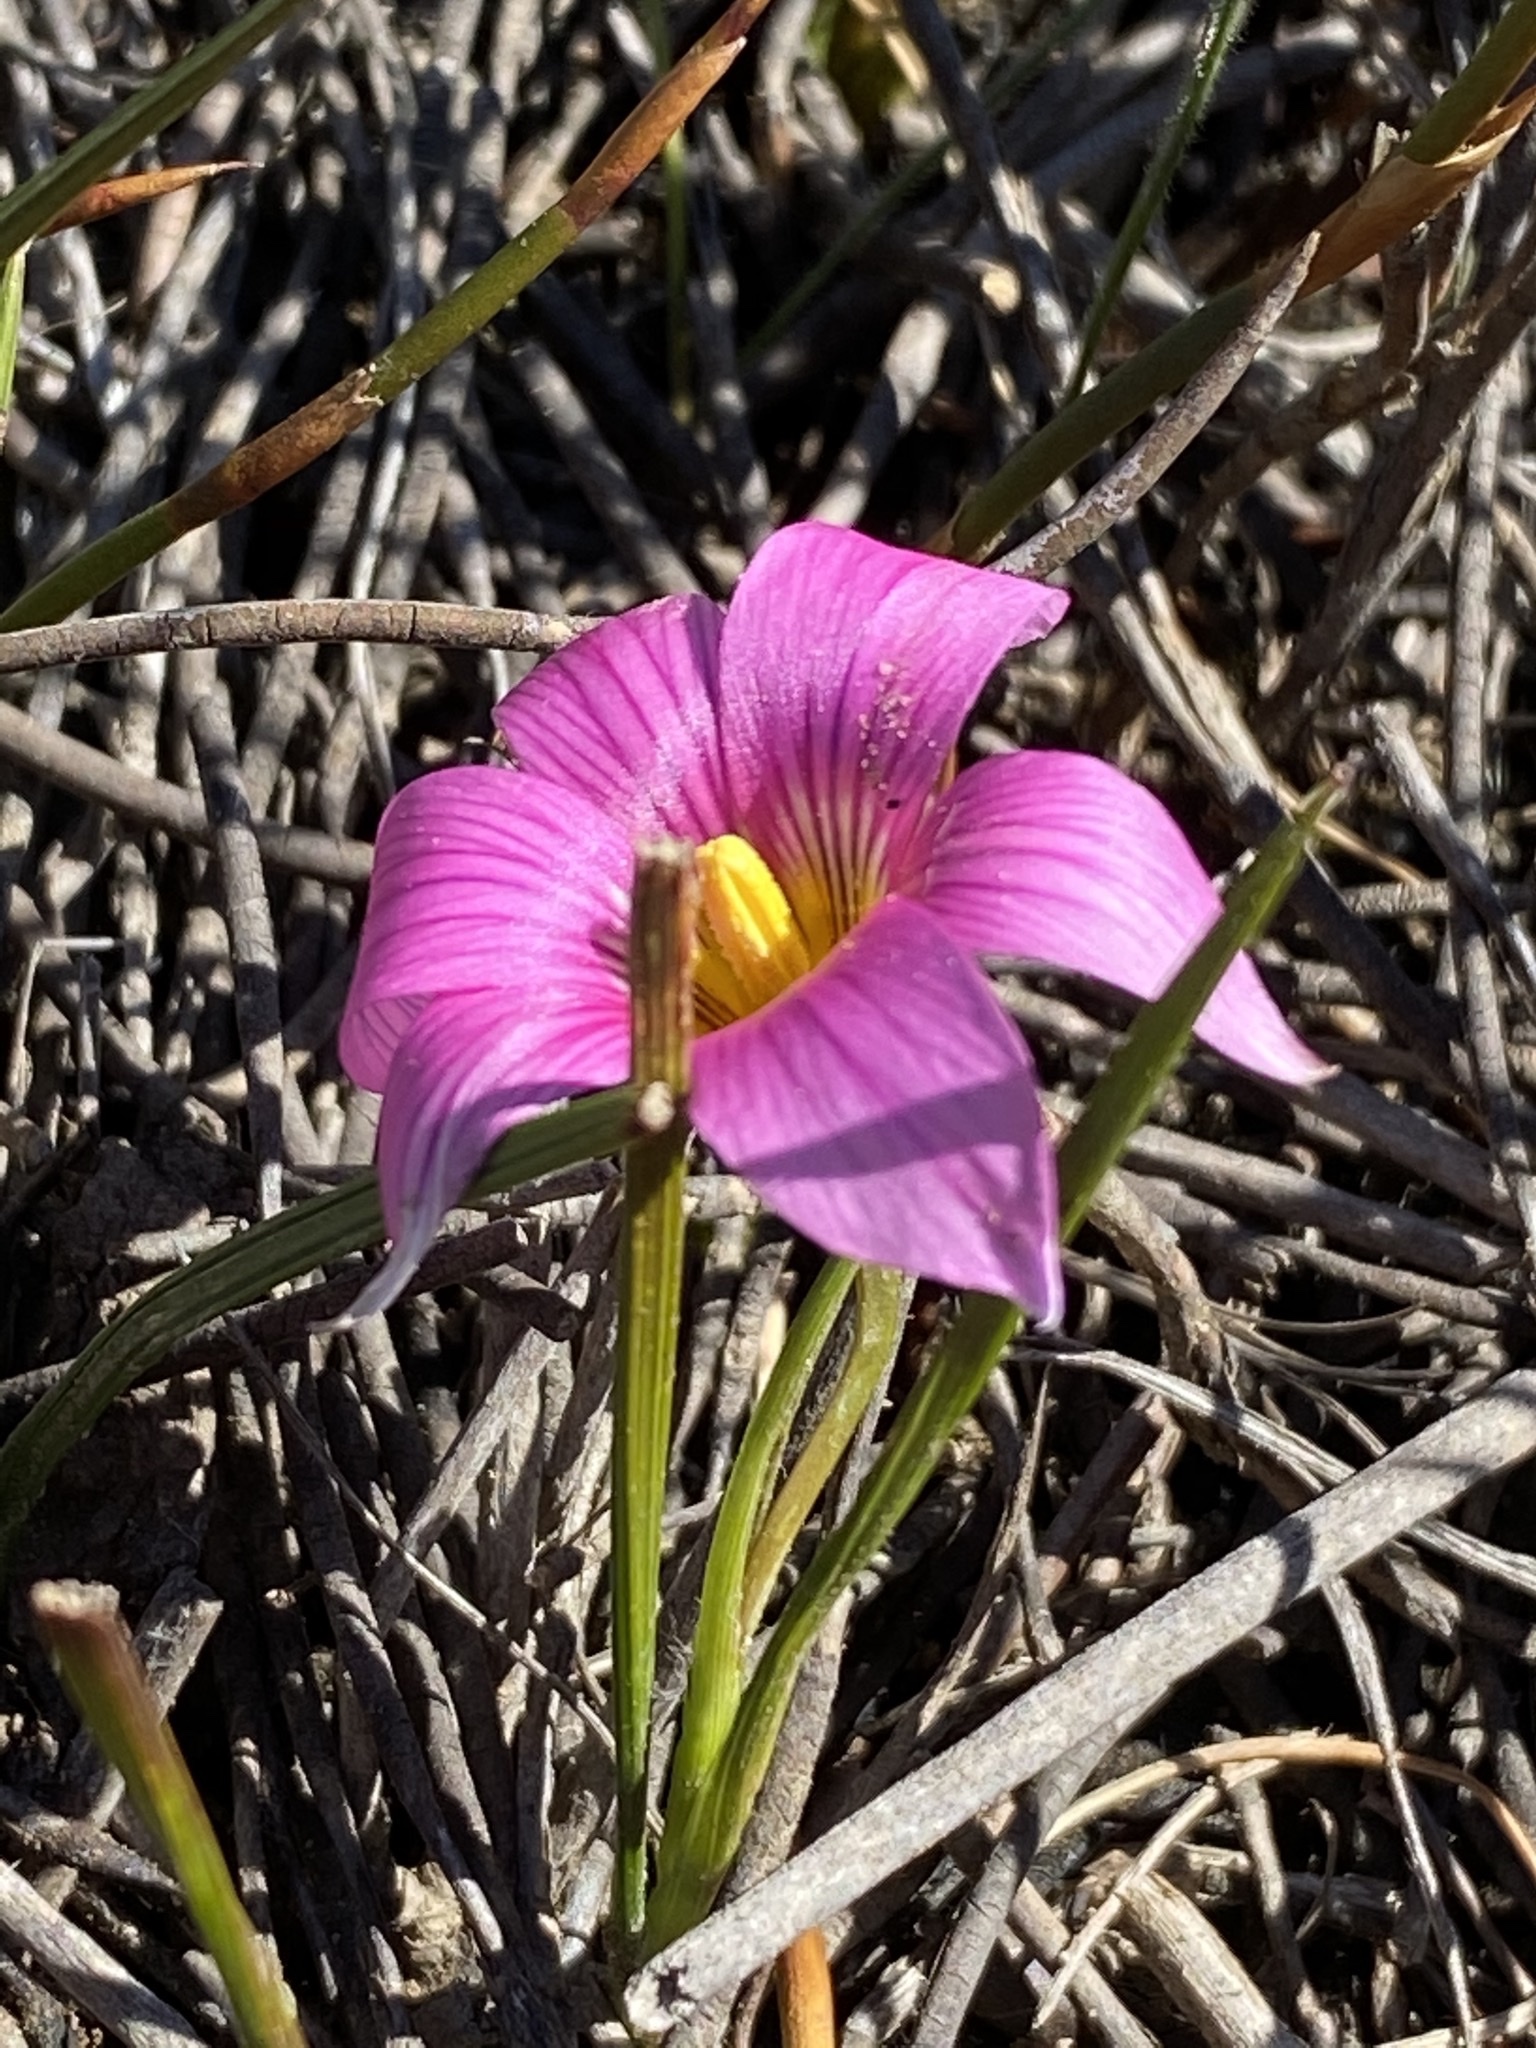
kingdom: Plantae
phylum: Tracheophyta
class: Liliopsida
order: Asparagales
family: Iridaceae
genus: Romulea
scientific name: Romulea fibrosa
